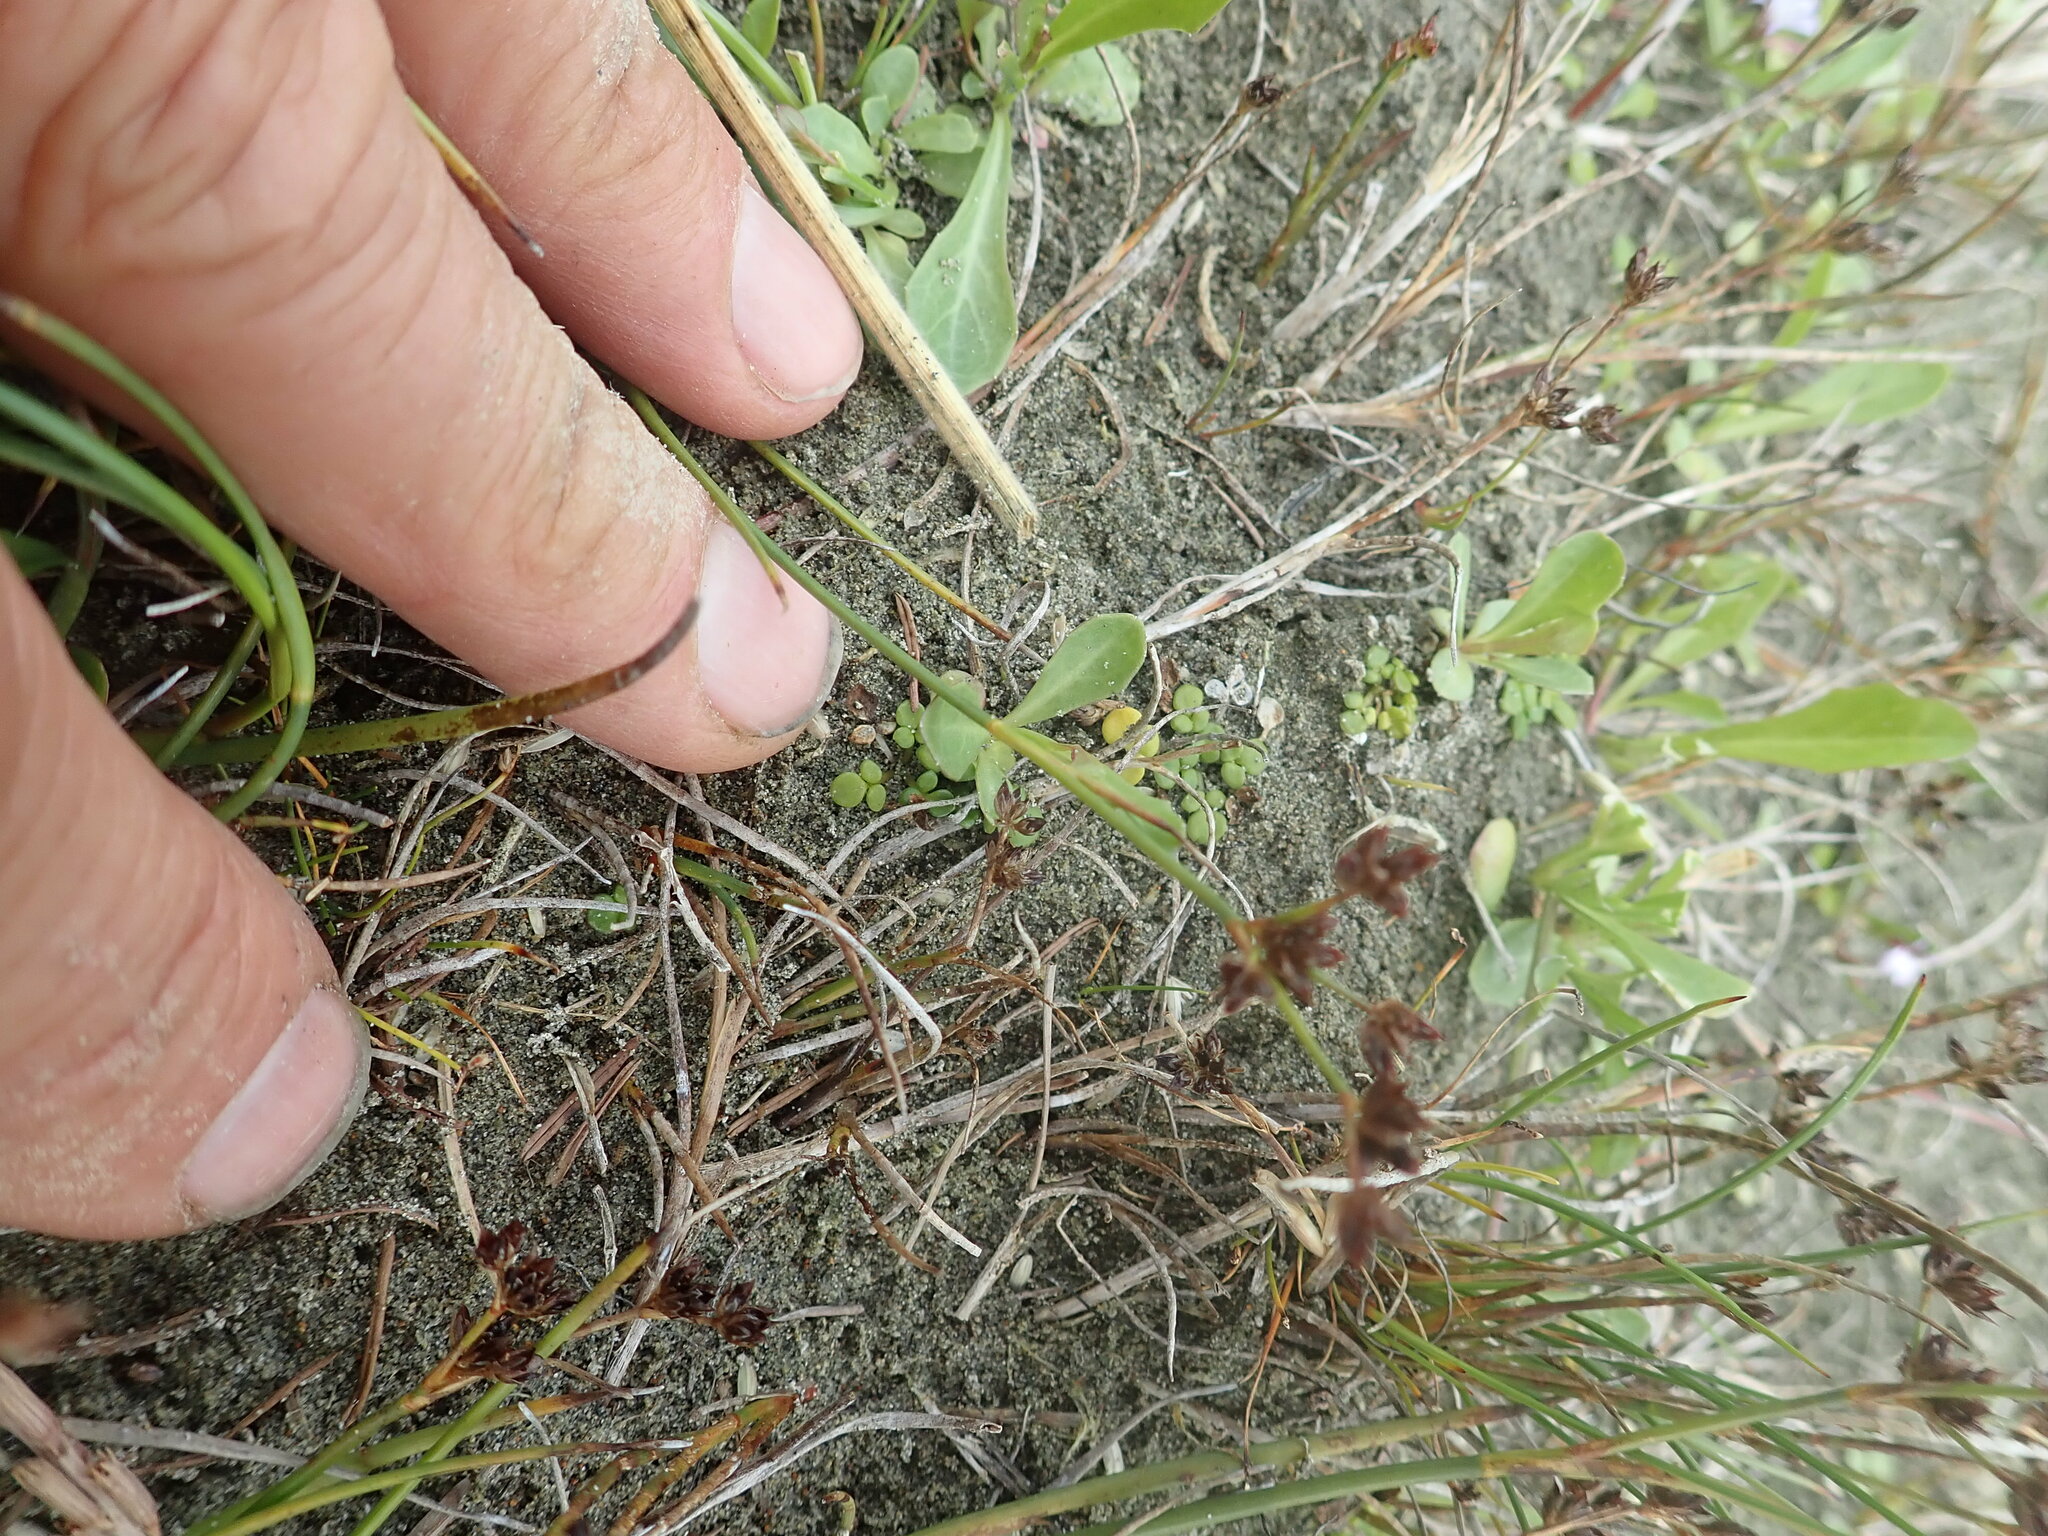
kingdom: Plantae
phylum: Tracheophyta
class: Magnoliopsida
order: Ranunculales
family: Ranunculaceae
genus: Ranunculus
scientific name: Ranunculus acaulis
